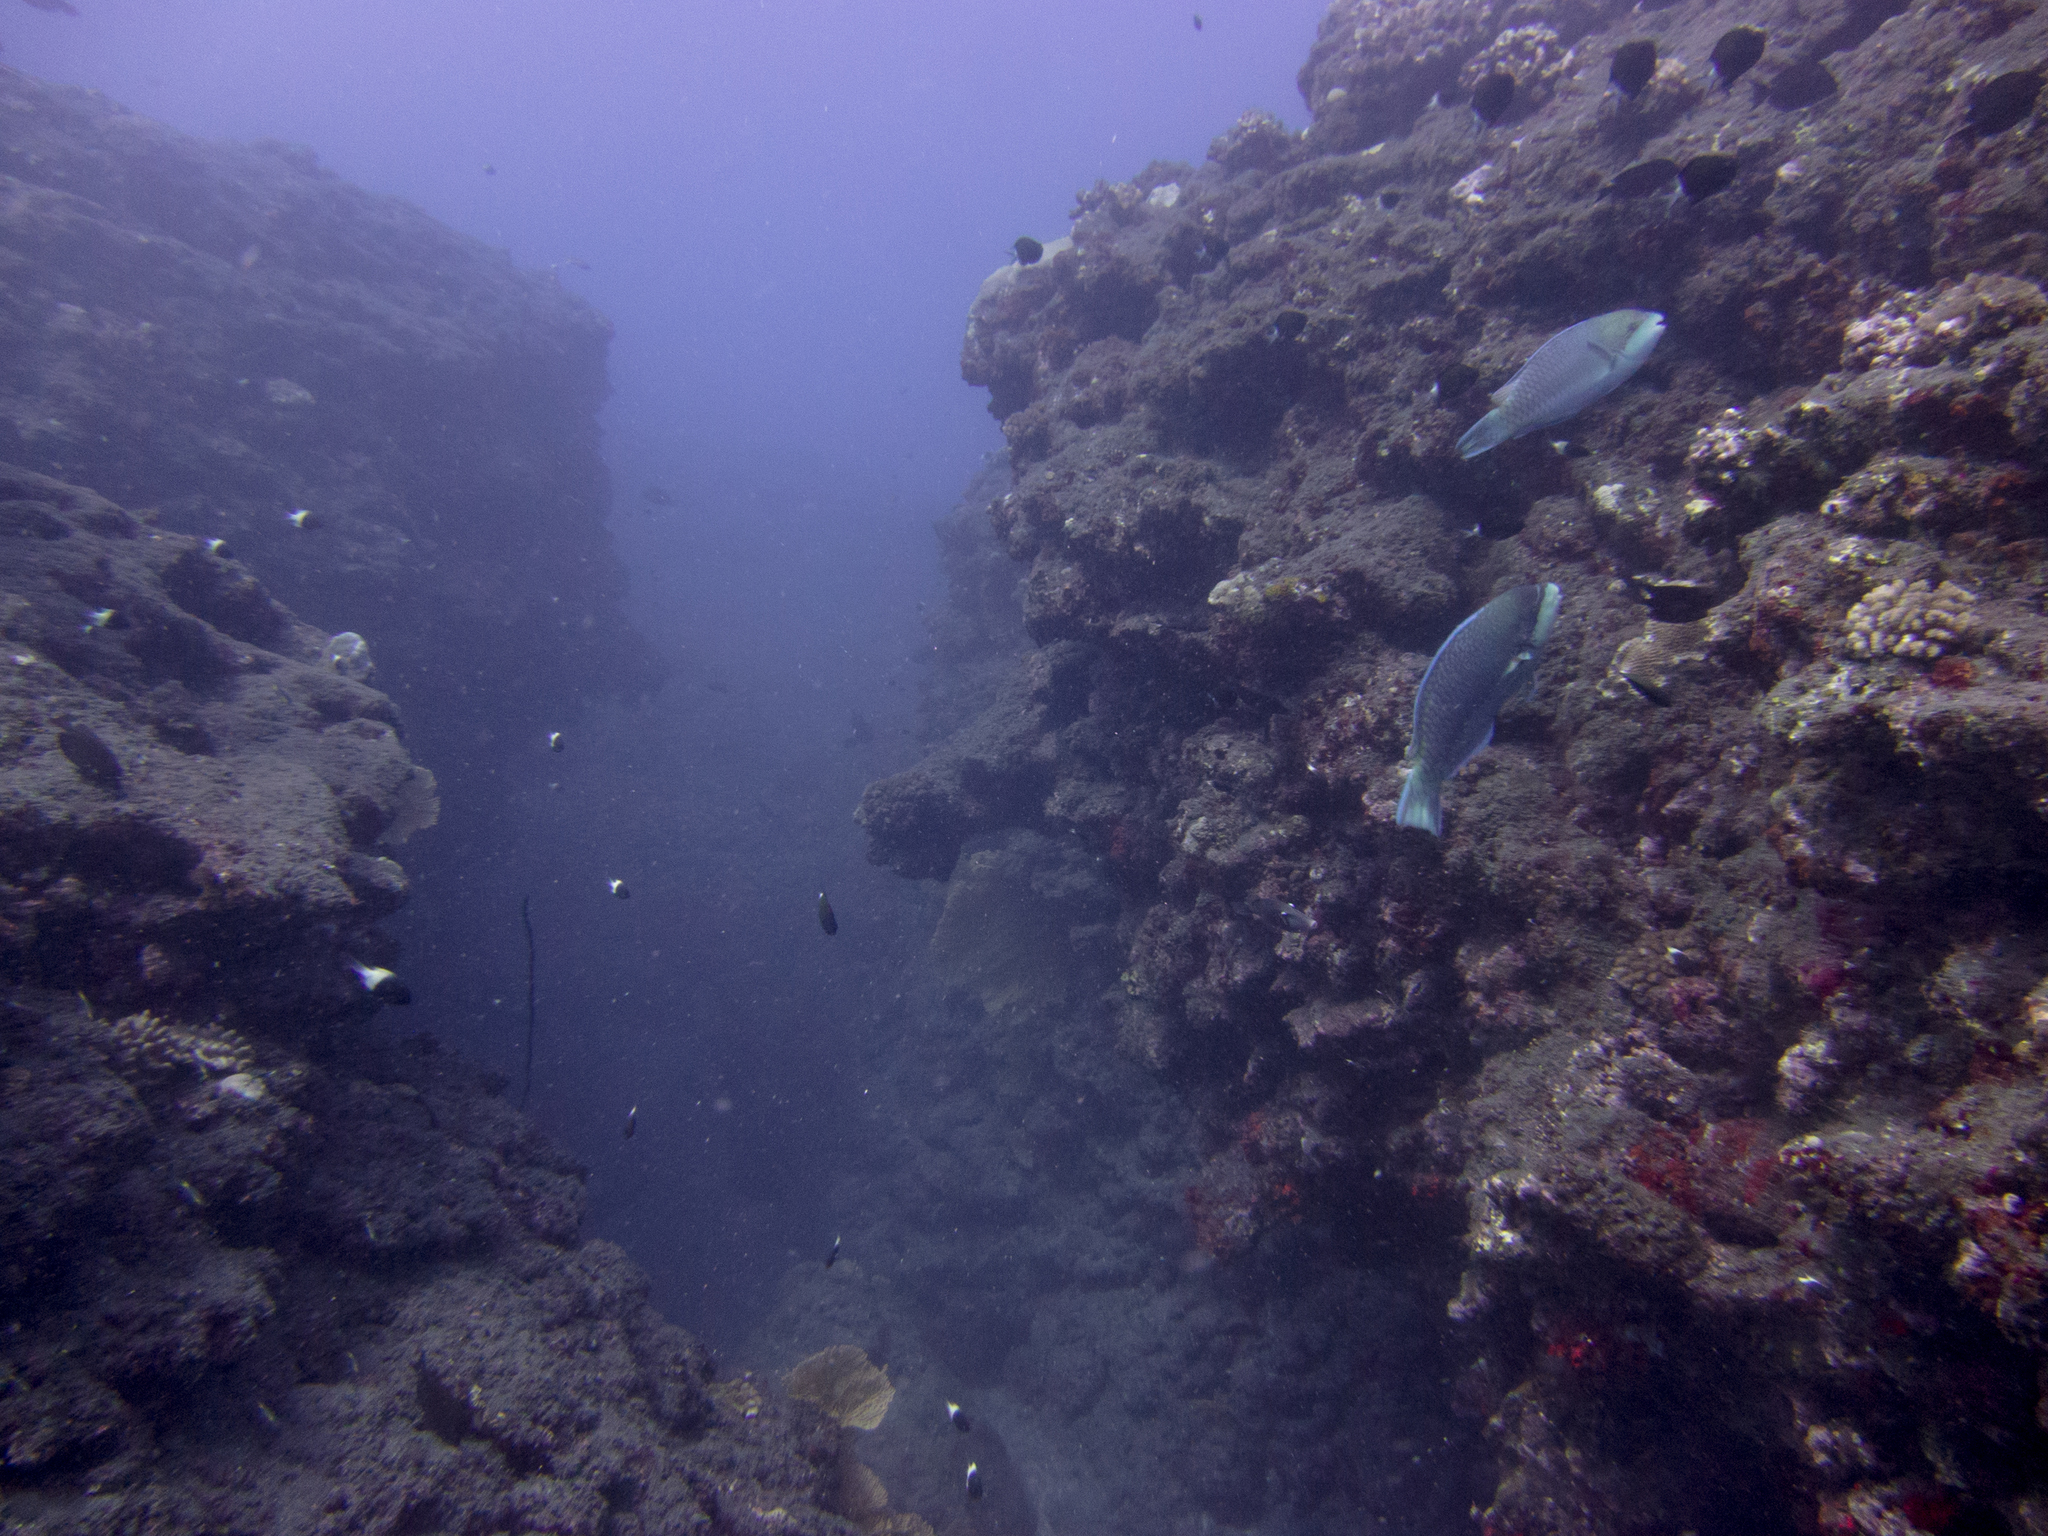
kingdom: Animalia
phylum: Chordata
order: Perciformes
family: Scaridae
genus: Scarus
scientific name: Scarus globiceps
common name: Globehead parrotfish
